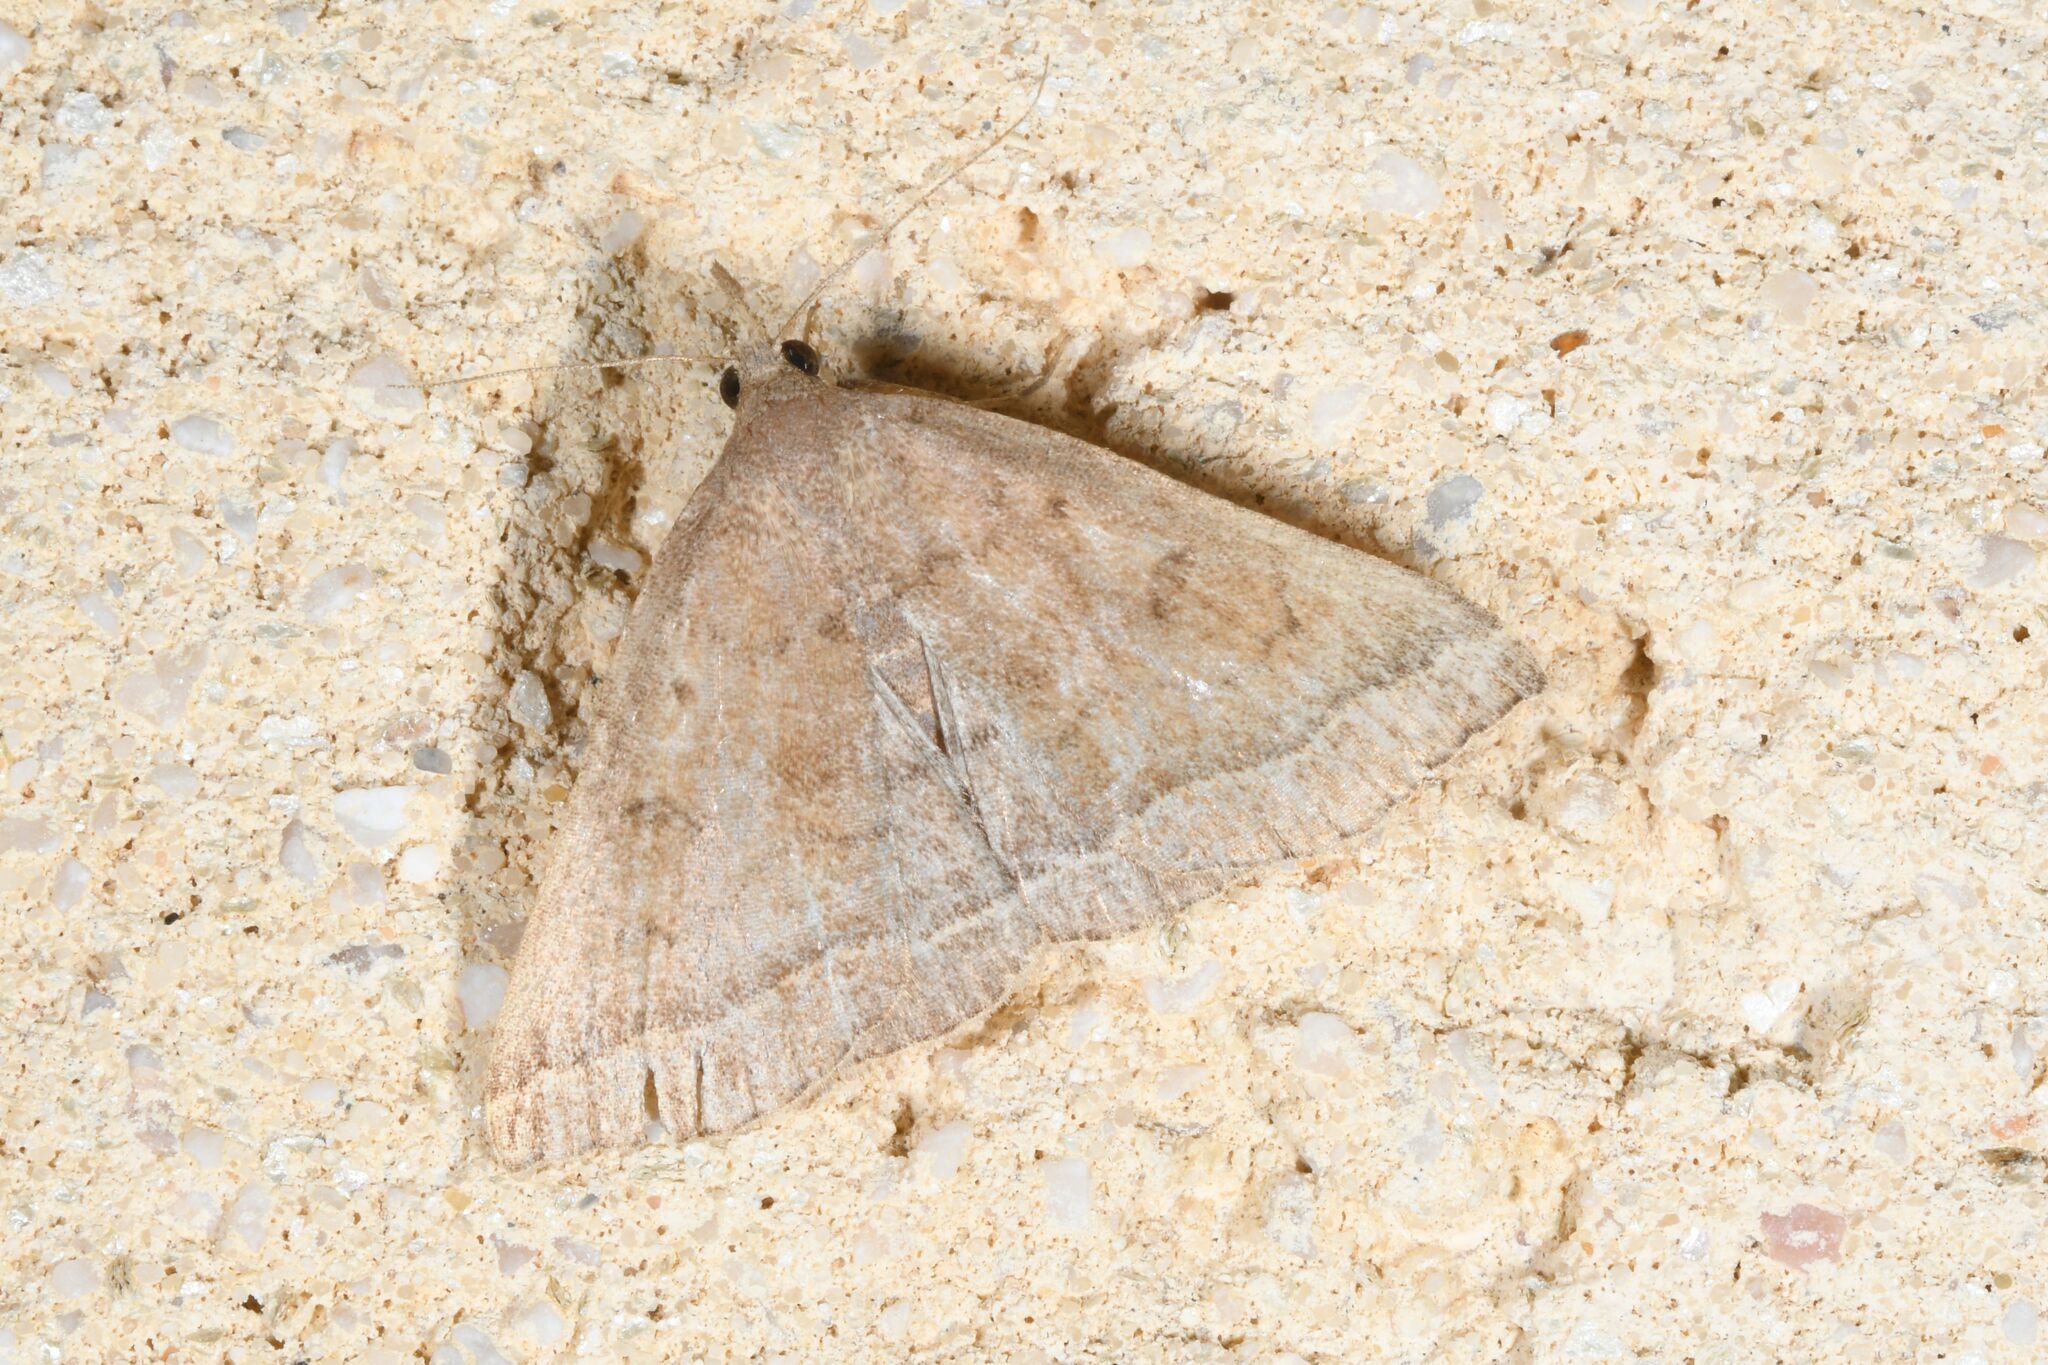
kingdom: Animalia
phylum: Arthropoda
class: Insecta
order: Lepidoptera
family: Erebidae
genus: Pechipogo
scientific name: Pechipogo plumigeralis
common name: Plumed fan-foot
